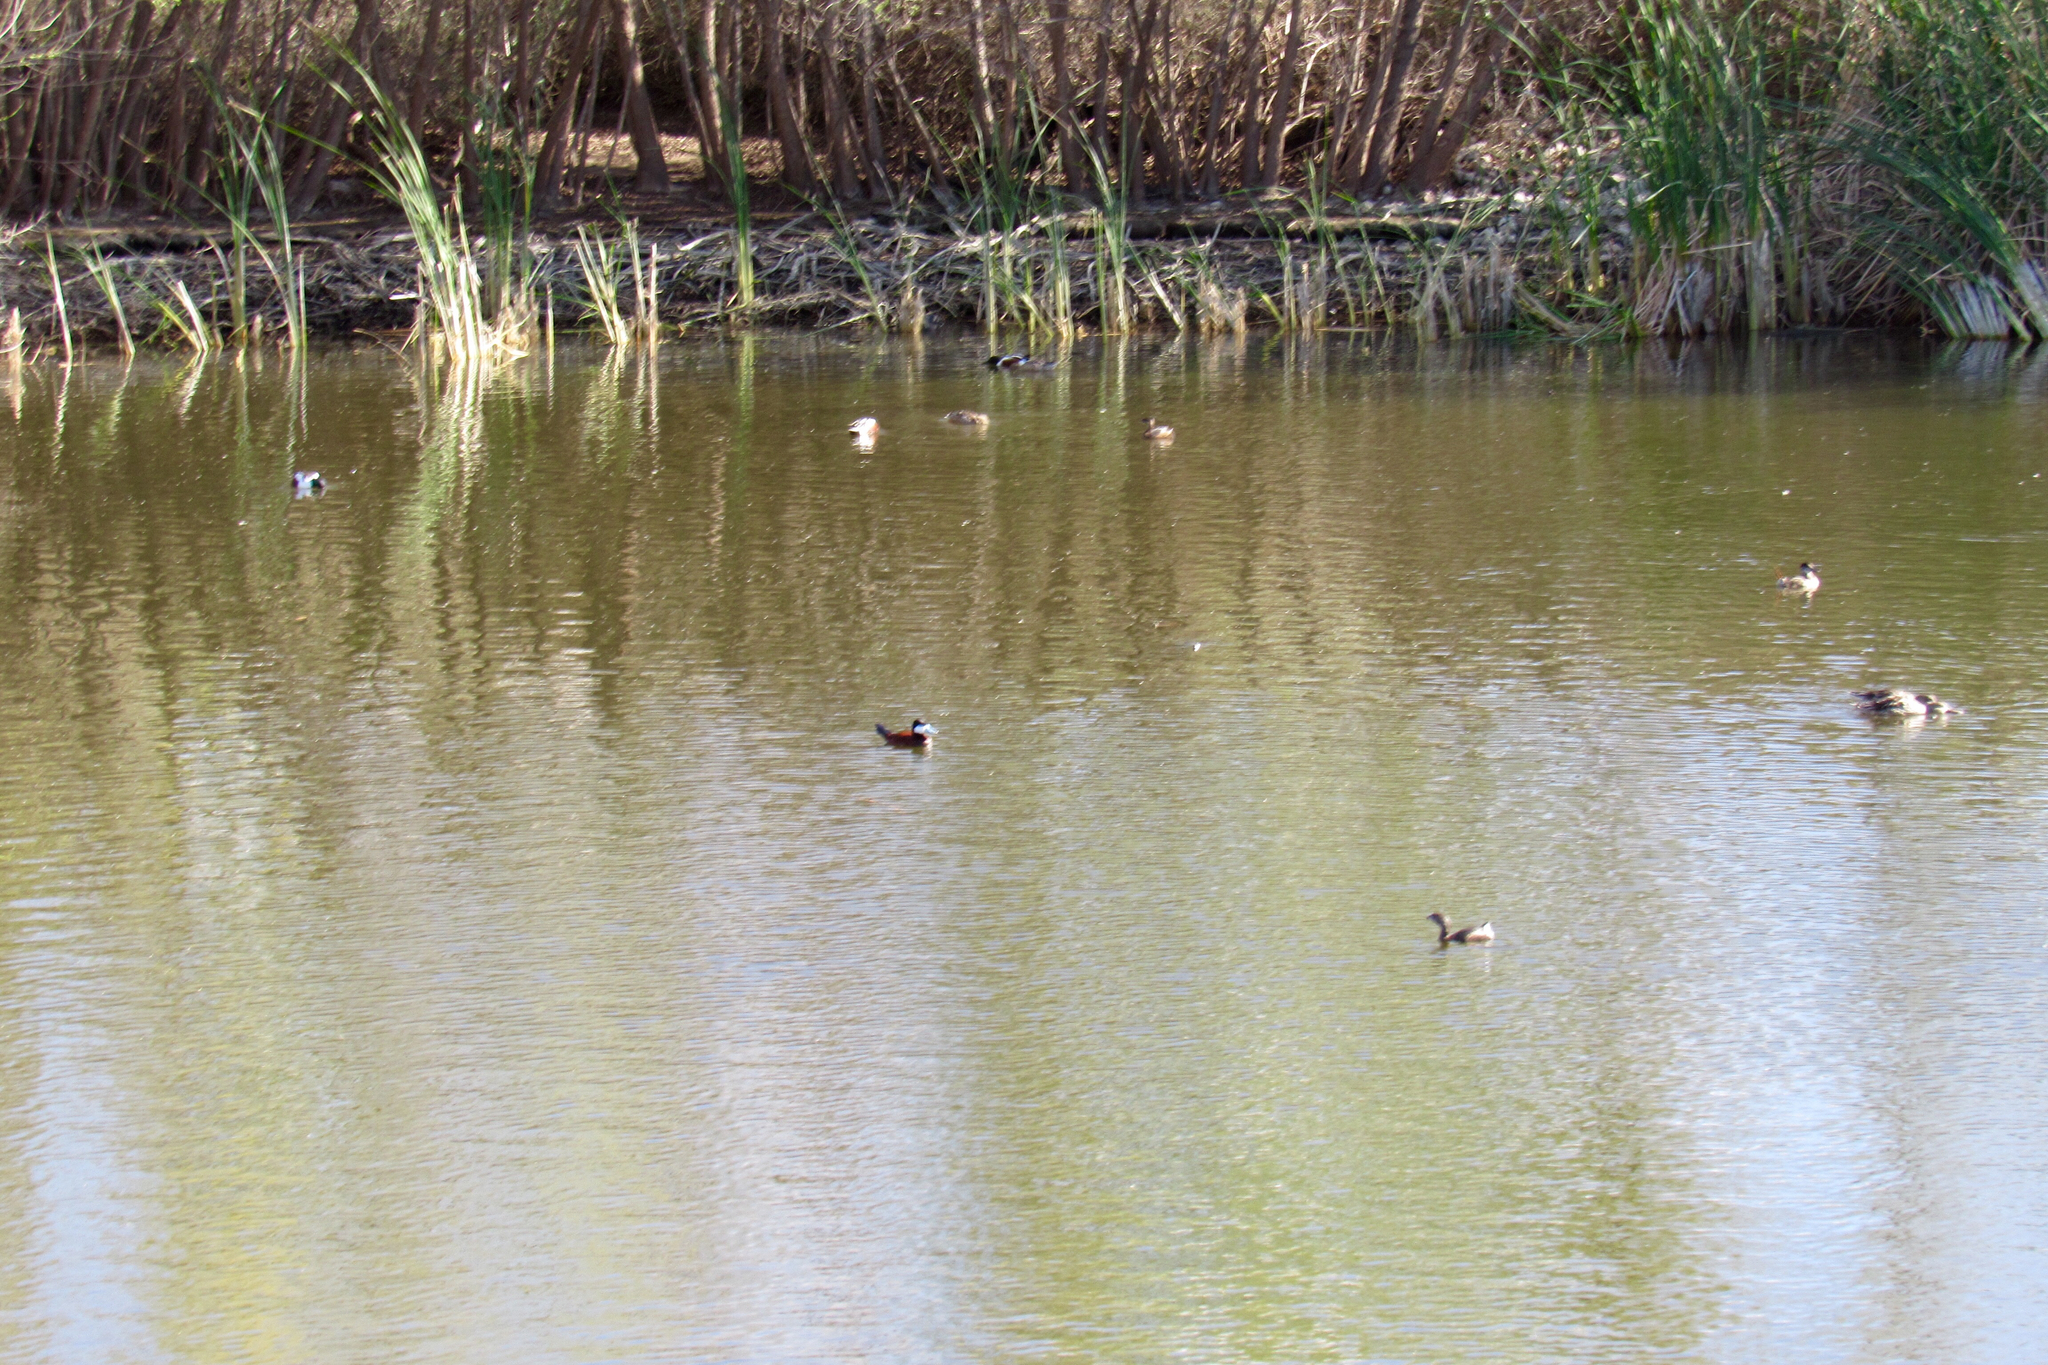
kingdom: Animalia
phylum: Chordata
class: Aves
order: Anseriformes
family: Anatidae
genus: Oxyura
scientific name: Oxyura jamaicensis
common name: Ruddy duck
